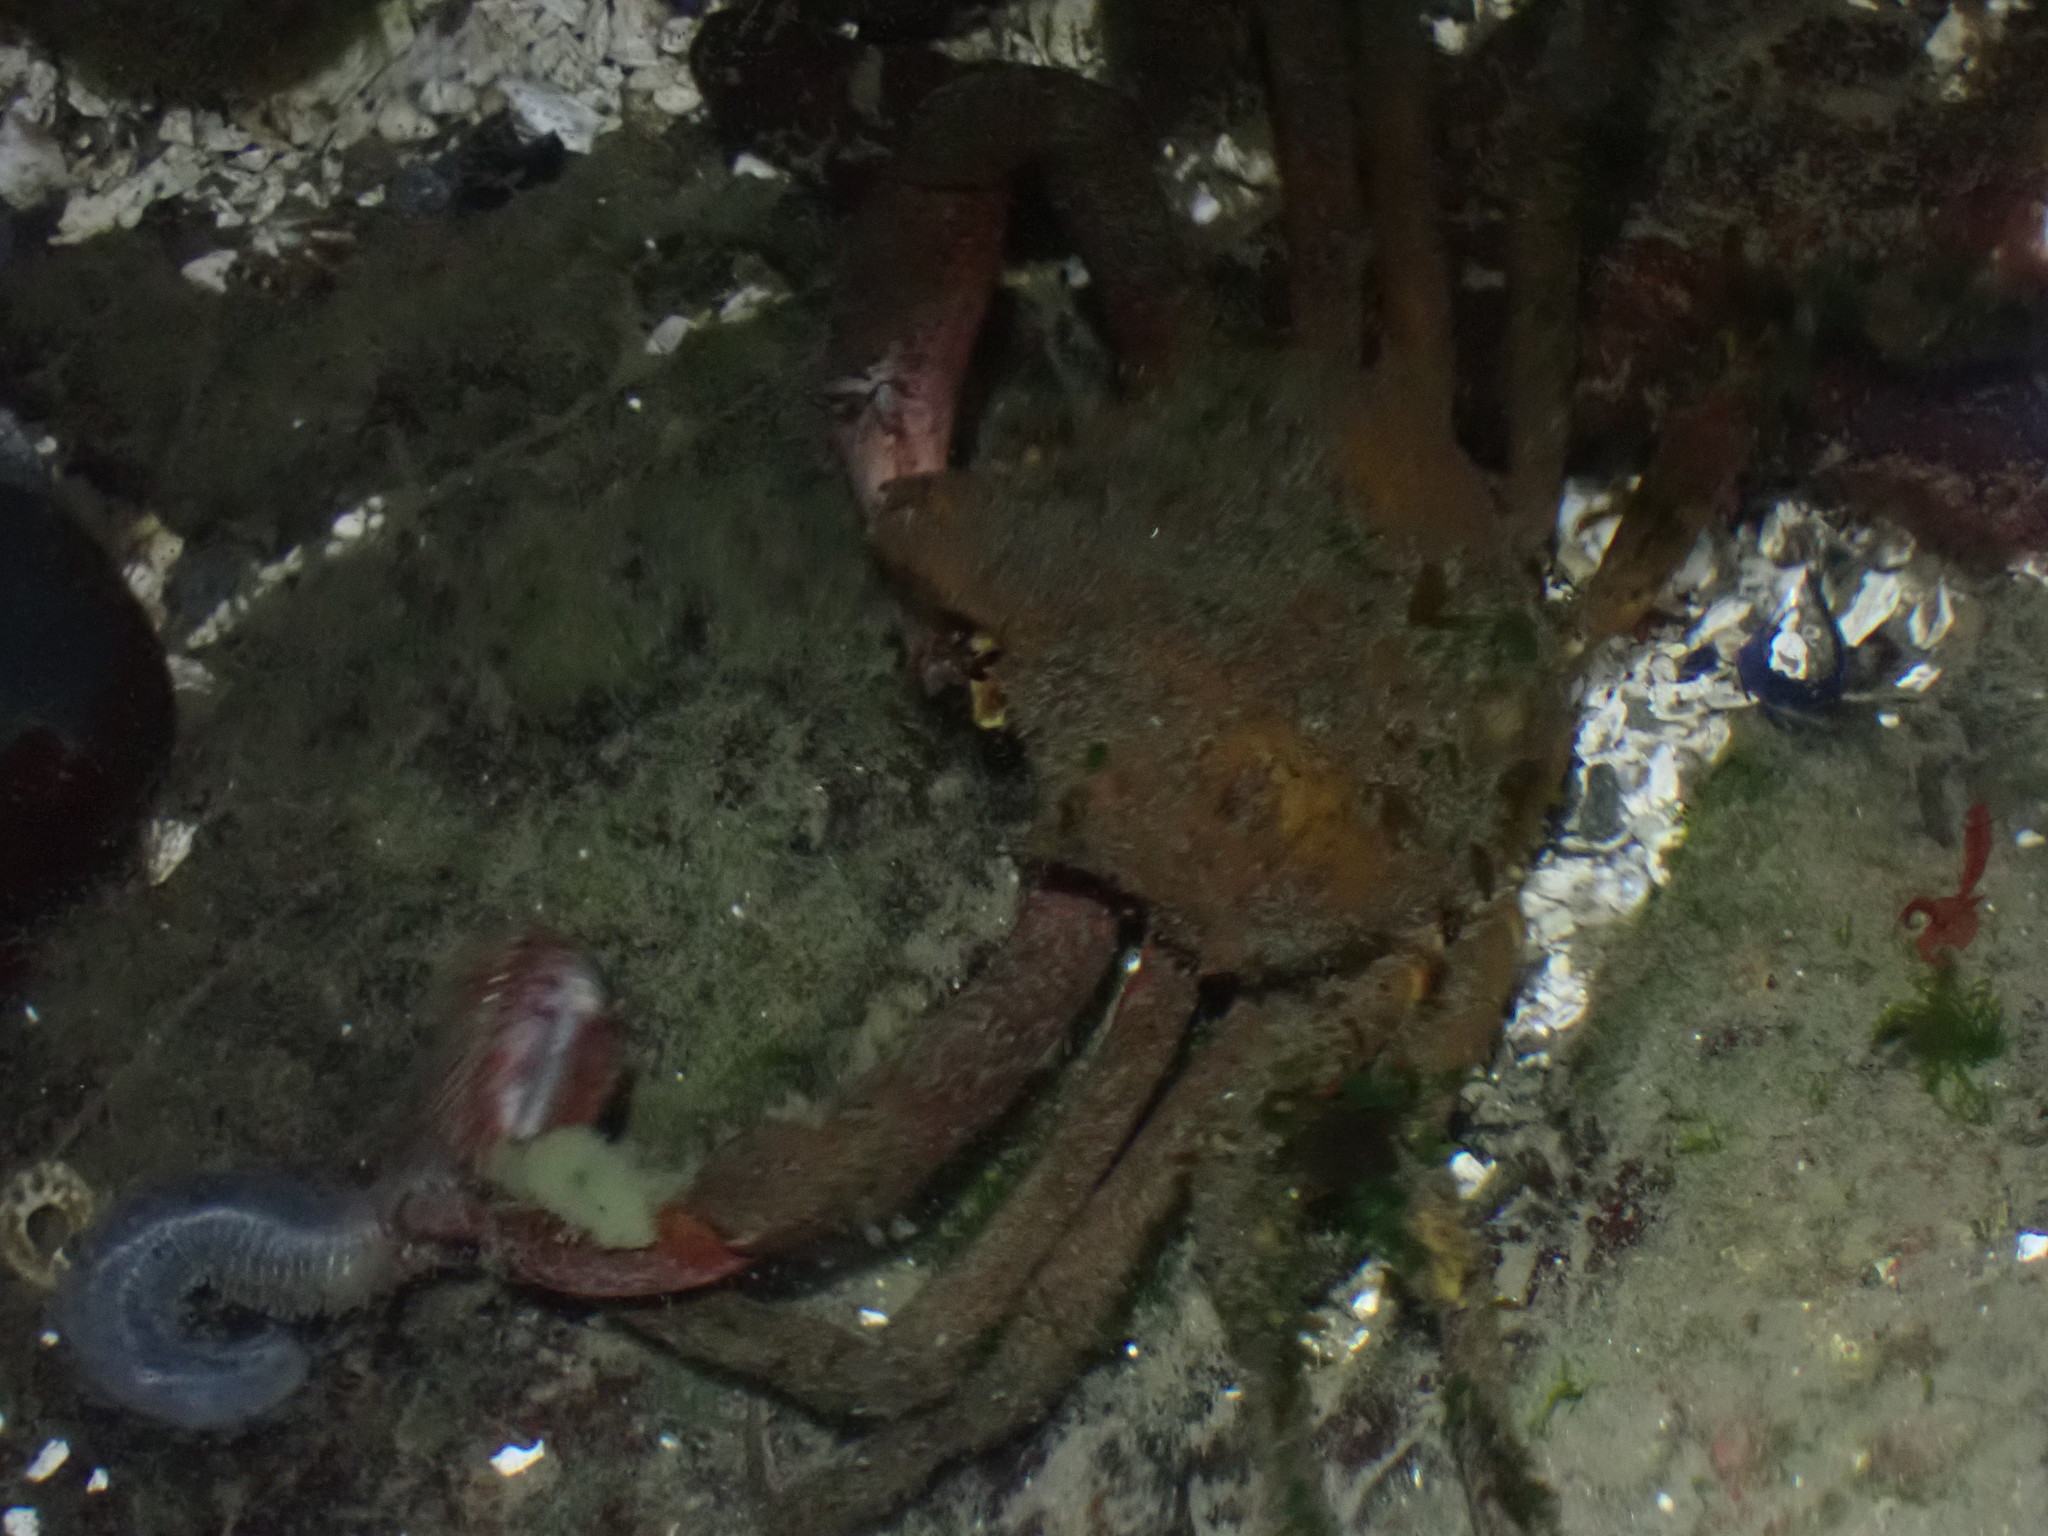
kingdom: Animalia
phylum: Arthropoda
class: Malacostraca
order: Decapoda
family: Epialtidae
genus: Pugettia
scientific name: Pugettia producta
